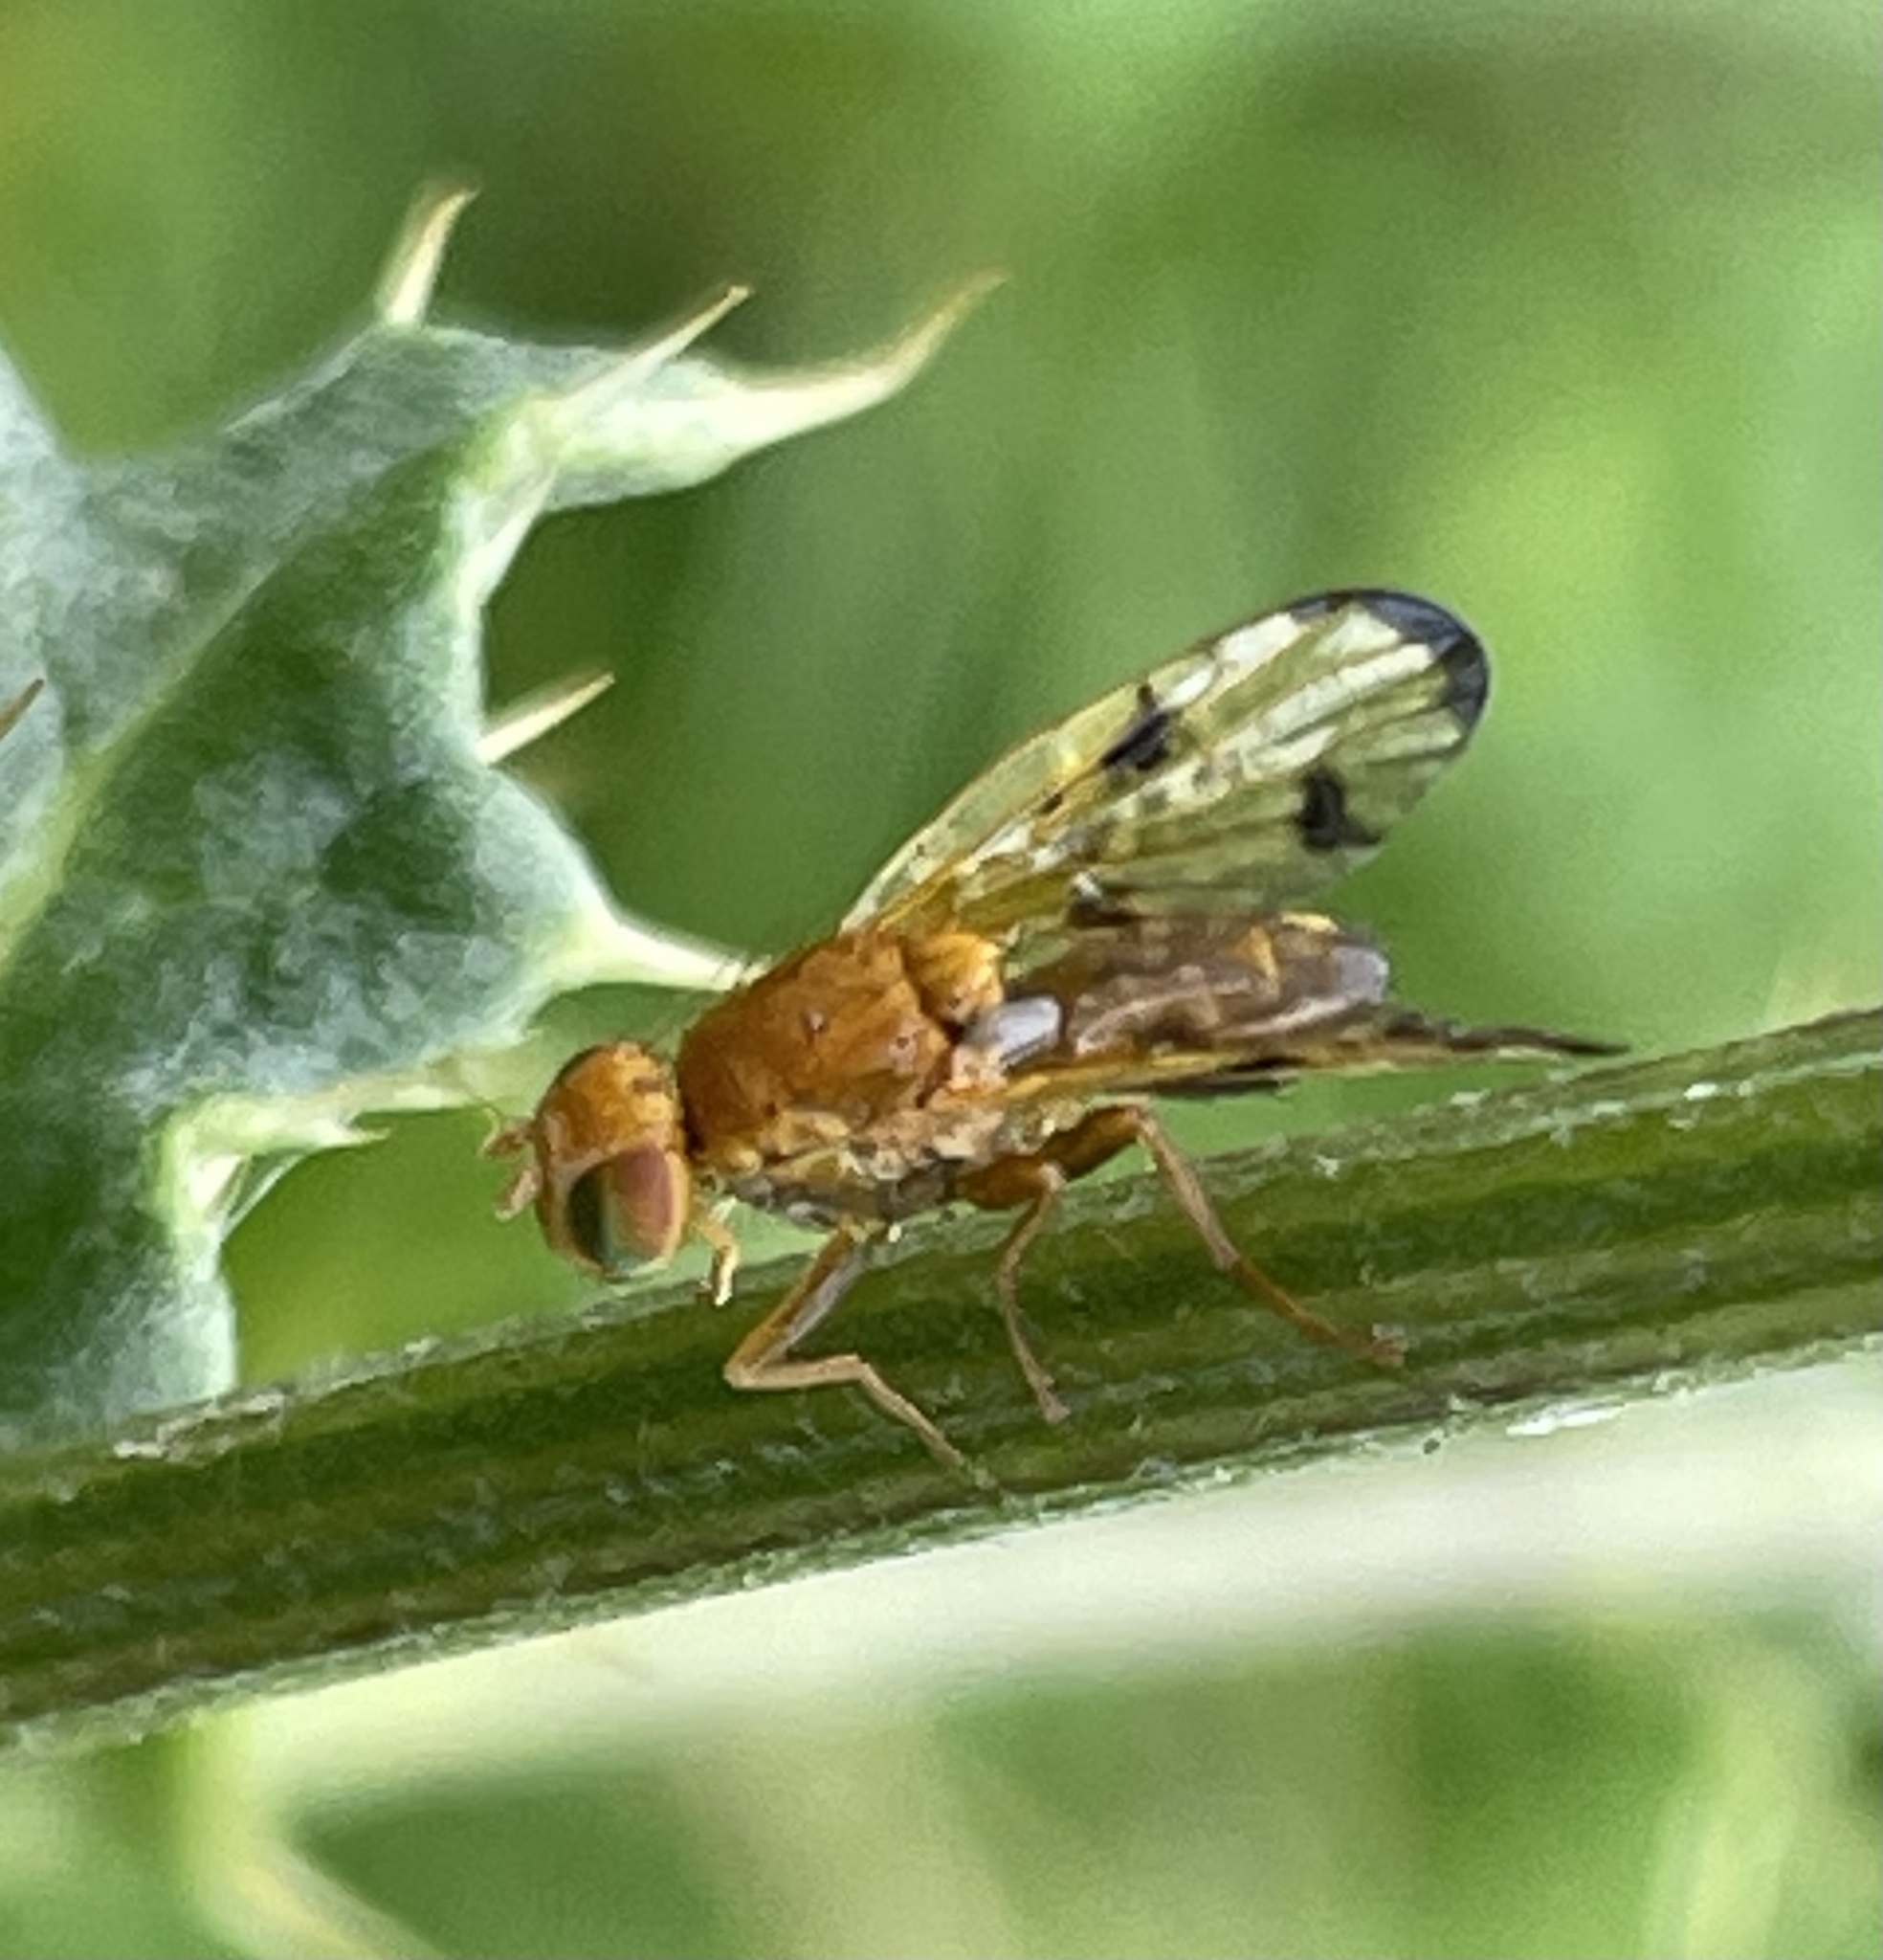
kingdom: Animalia
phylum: Arthropoda
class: Insecta
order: Diptera
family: Tephritidae
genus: Xyphosia
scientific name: Xyphosia miliaria
